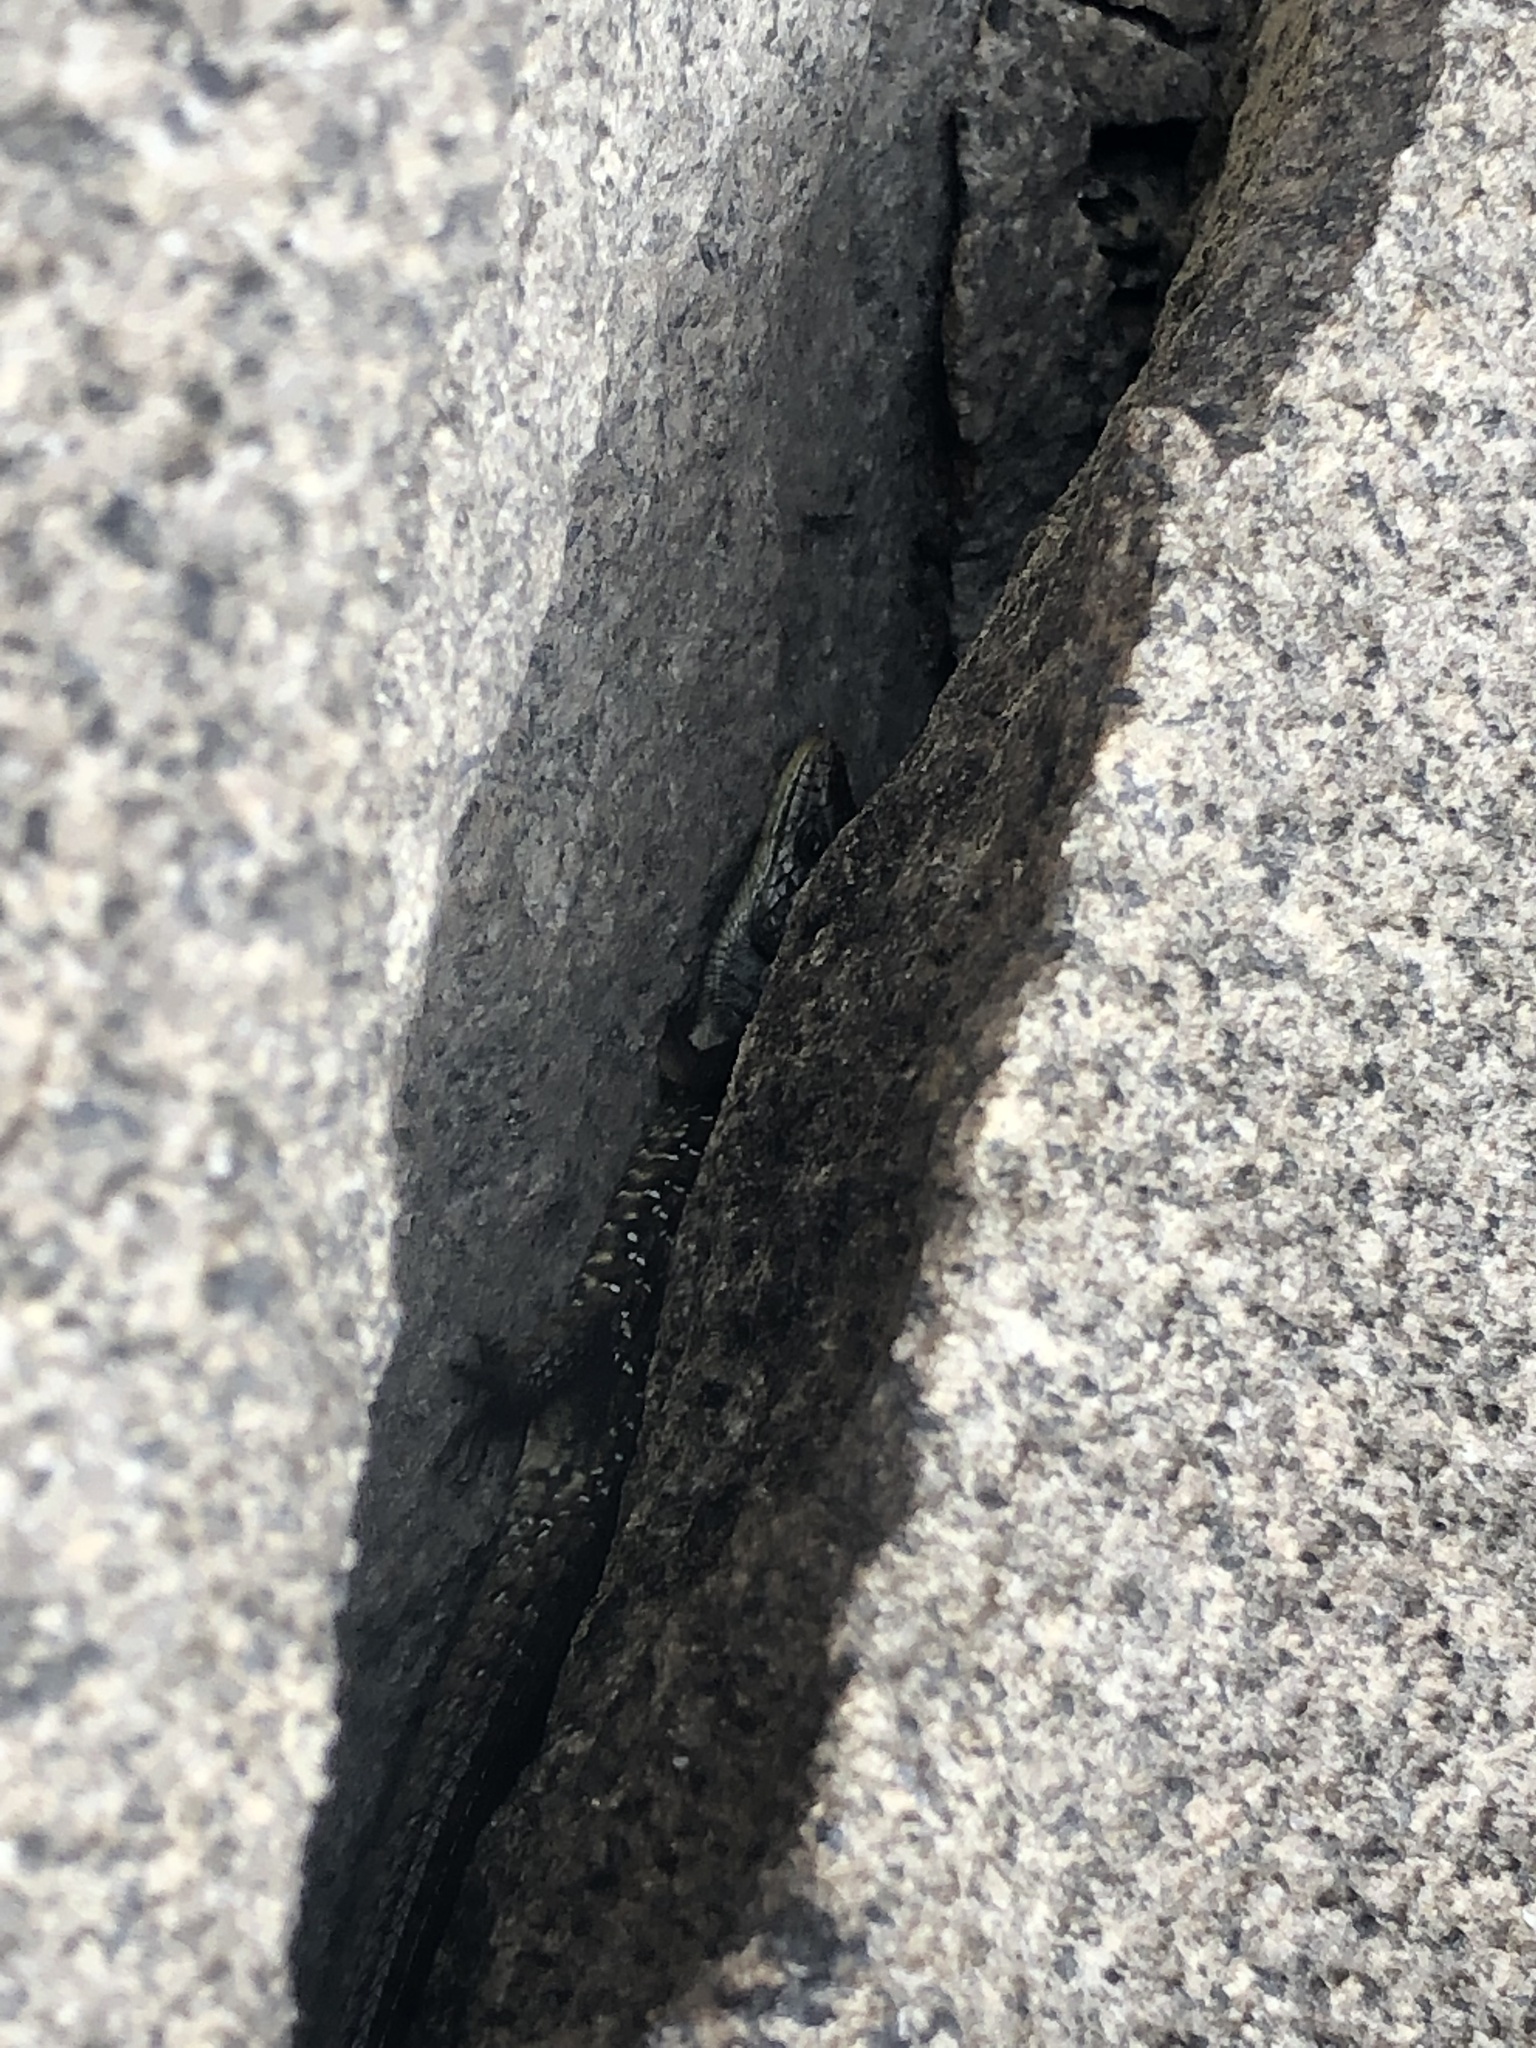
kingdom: Animalia
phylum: Chordata
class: Squamata
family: Anguidae
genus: Elgaria
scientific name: Elgaria coerulea
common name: Northern alligator lizard
